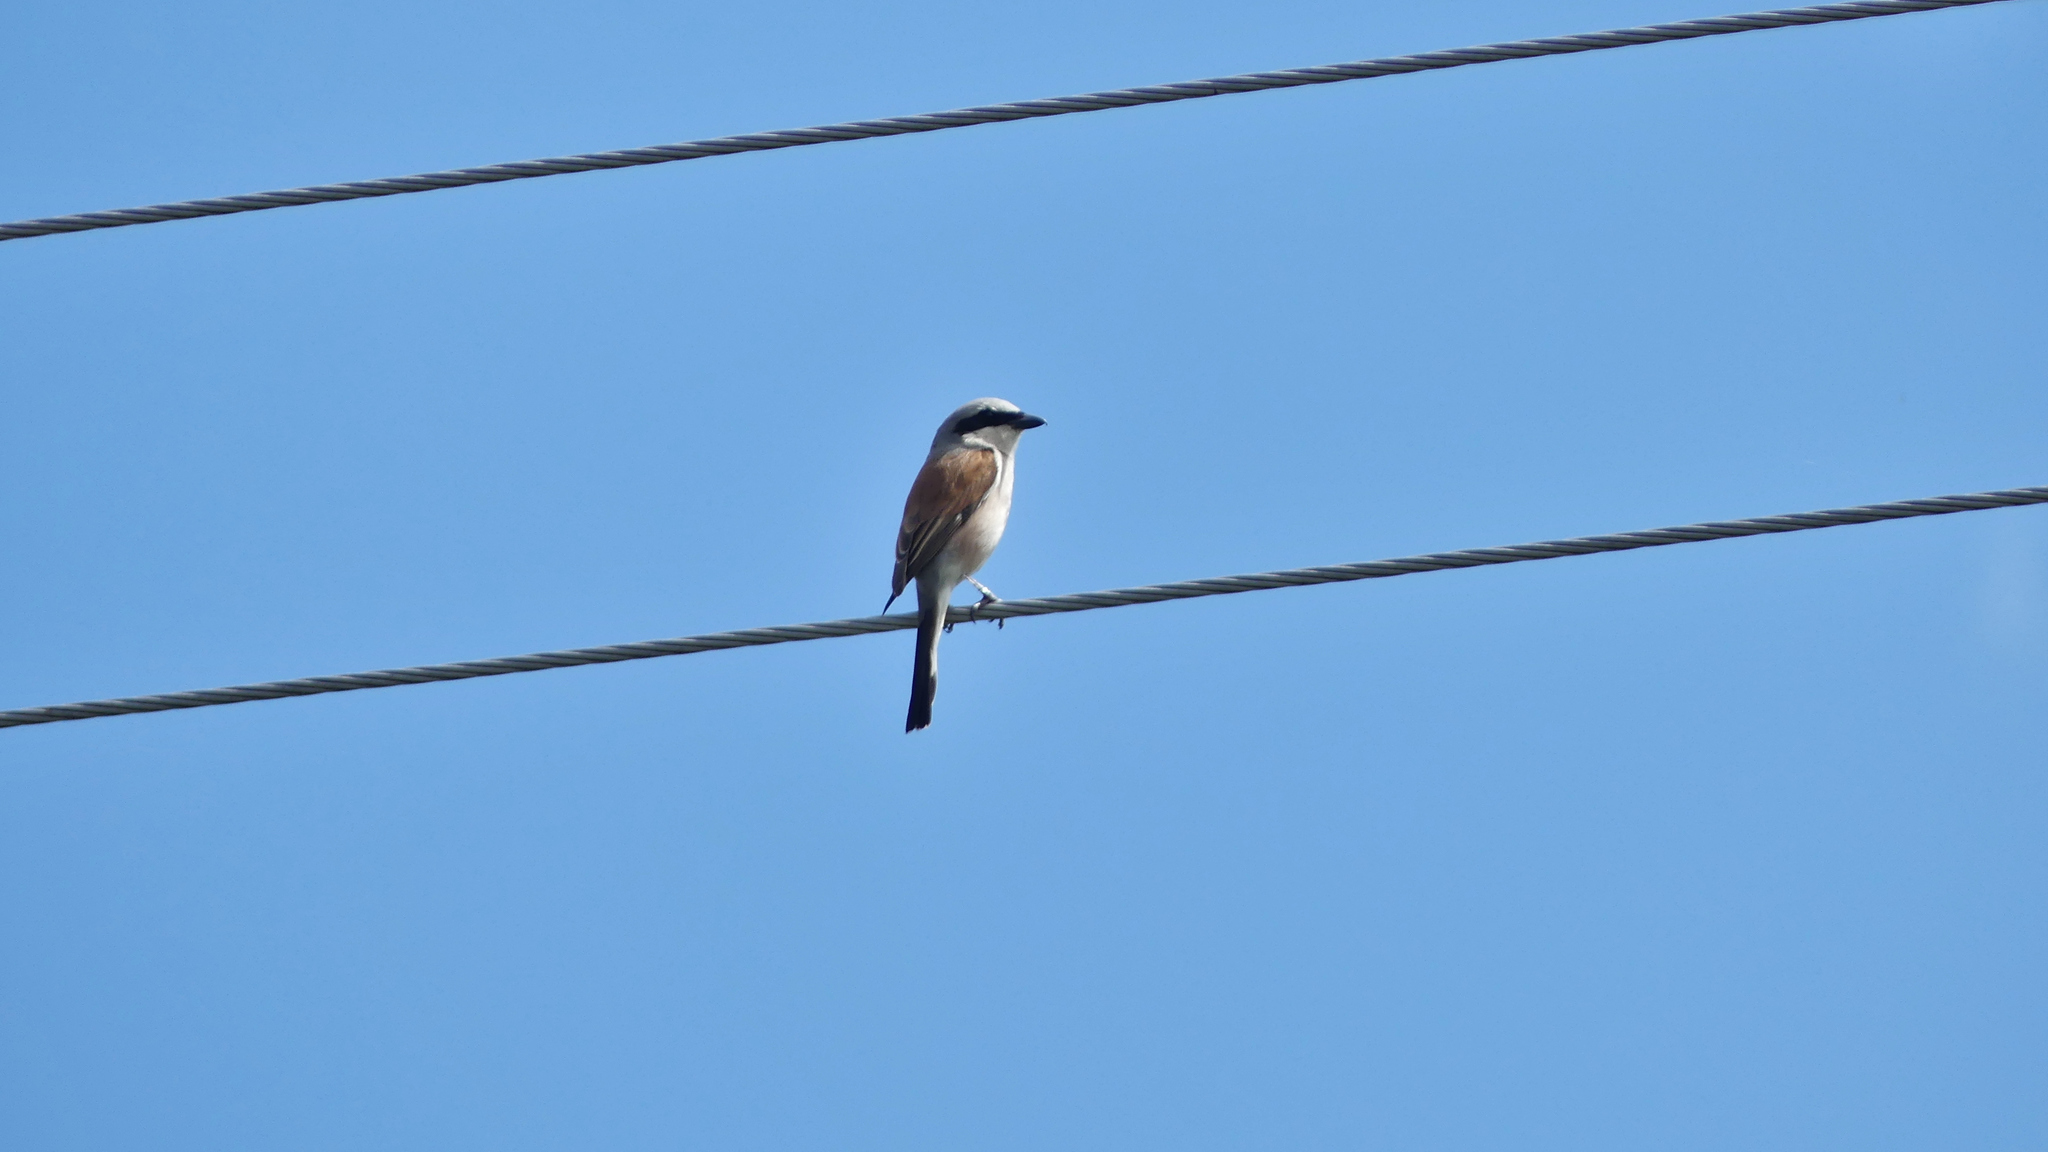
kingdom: Animalia
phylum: Chordata
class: Aves
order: Passeriformes
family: Laniidae
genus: Lanius
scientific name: Lanius collurio
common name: Red-backed shrike
